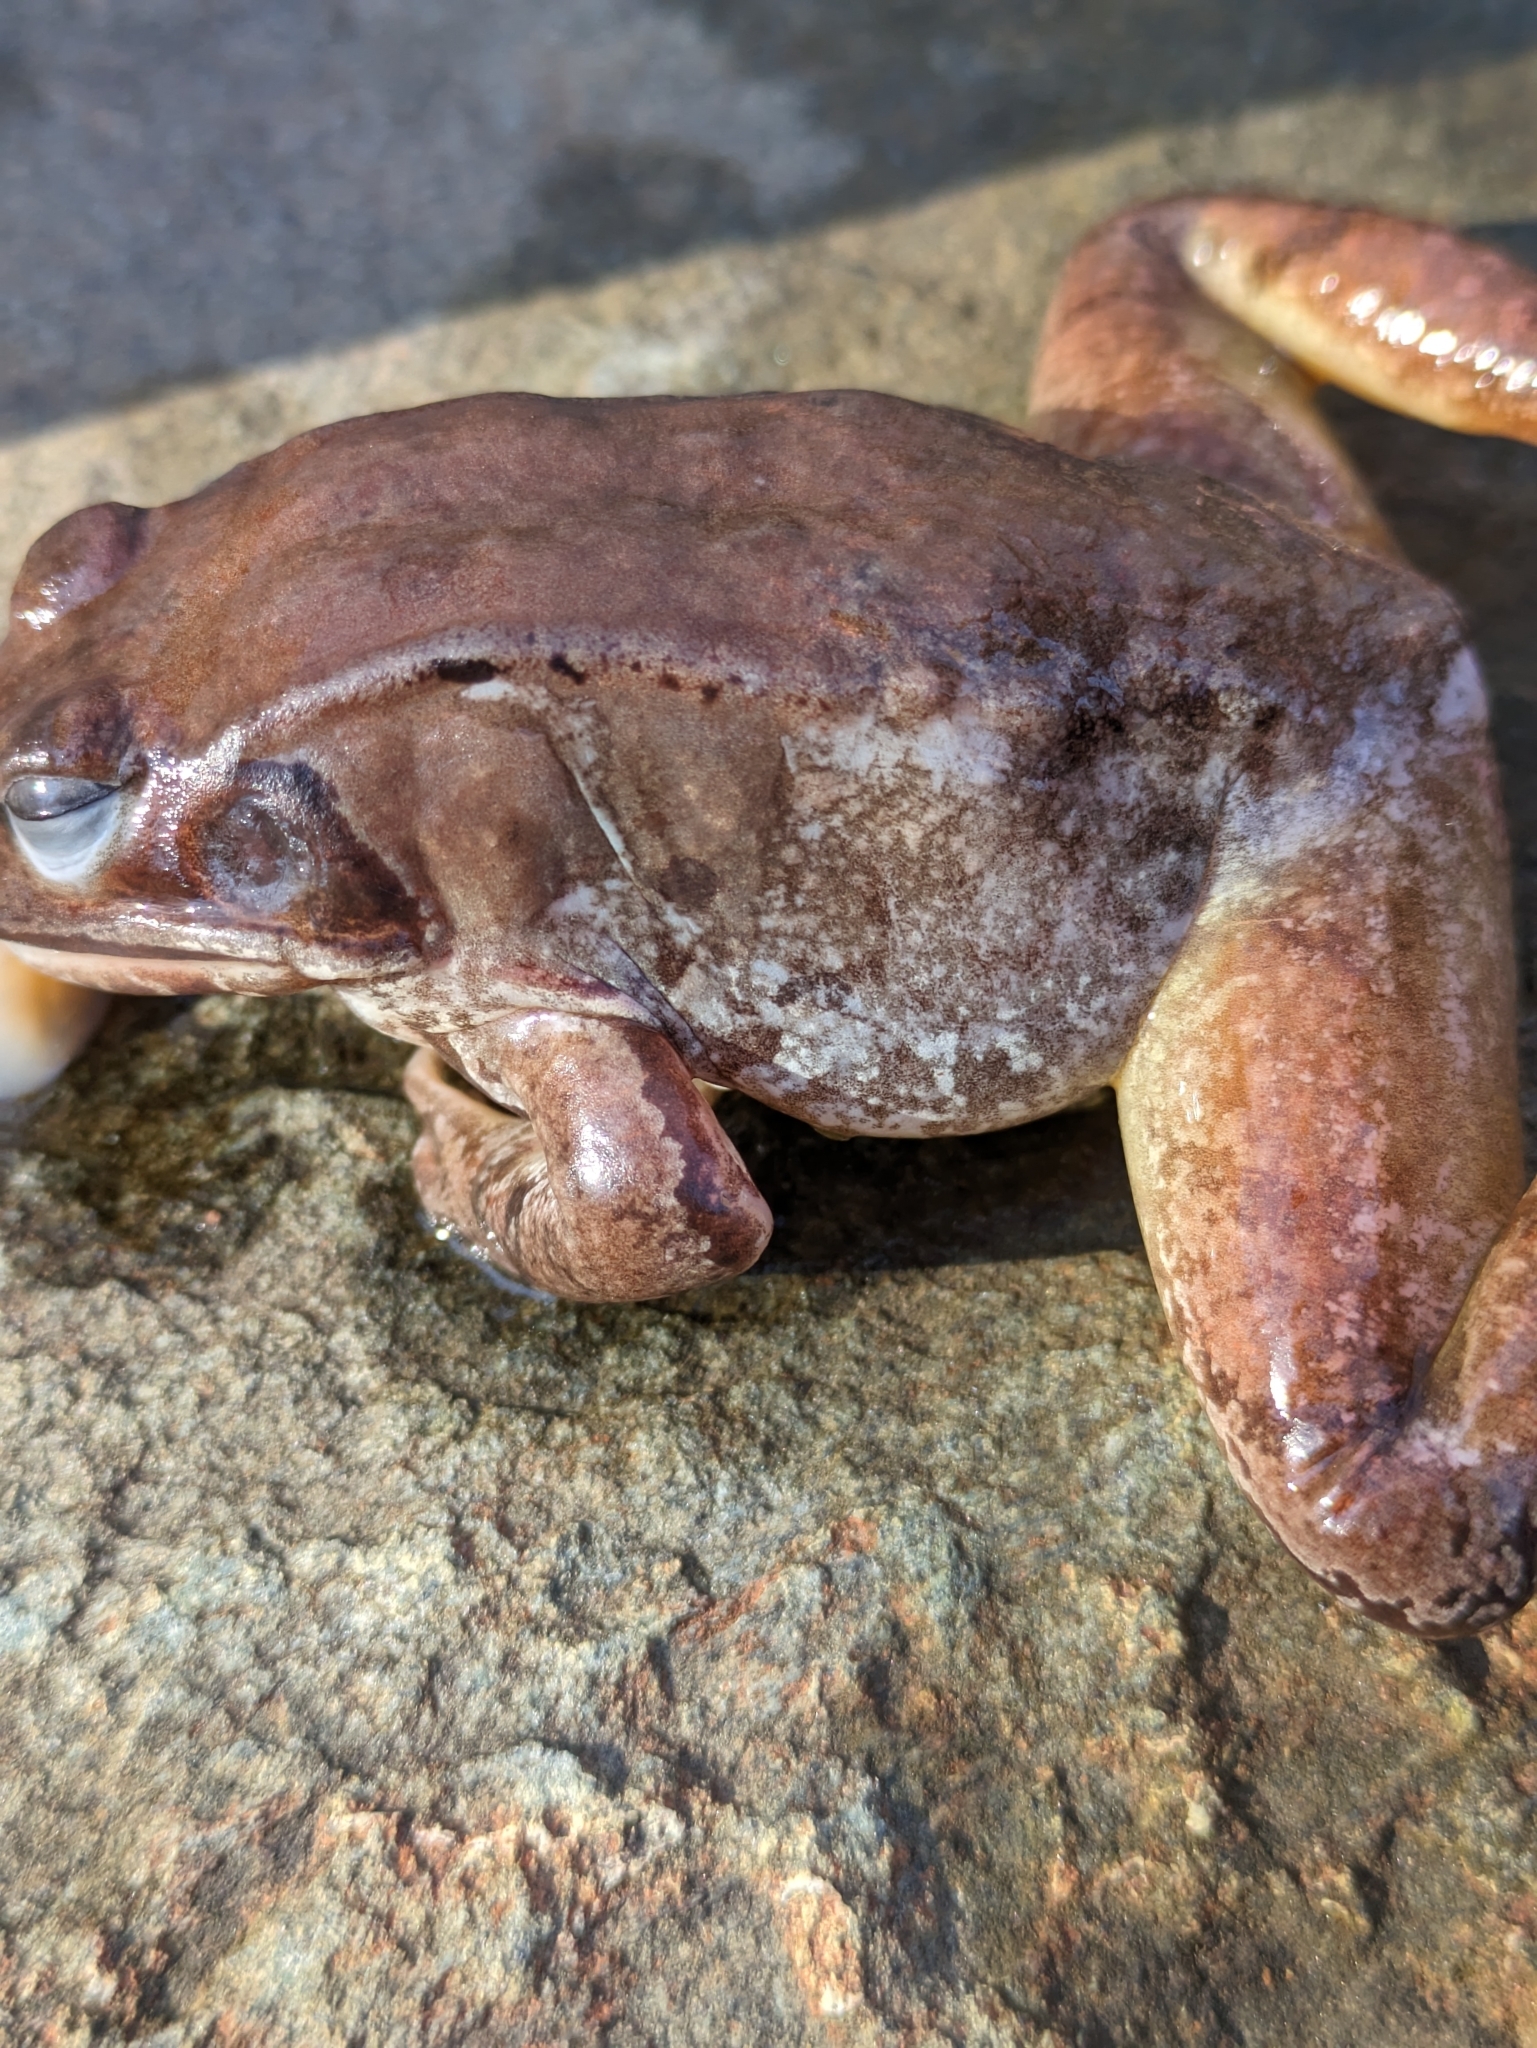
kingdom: Animalia
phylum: Chordata
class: Amphibia
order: Anura
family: Ranidae
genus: Lithobates
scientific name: Lithobates sylvaticus
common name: Wood frog
